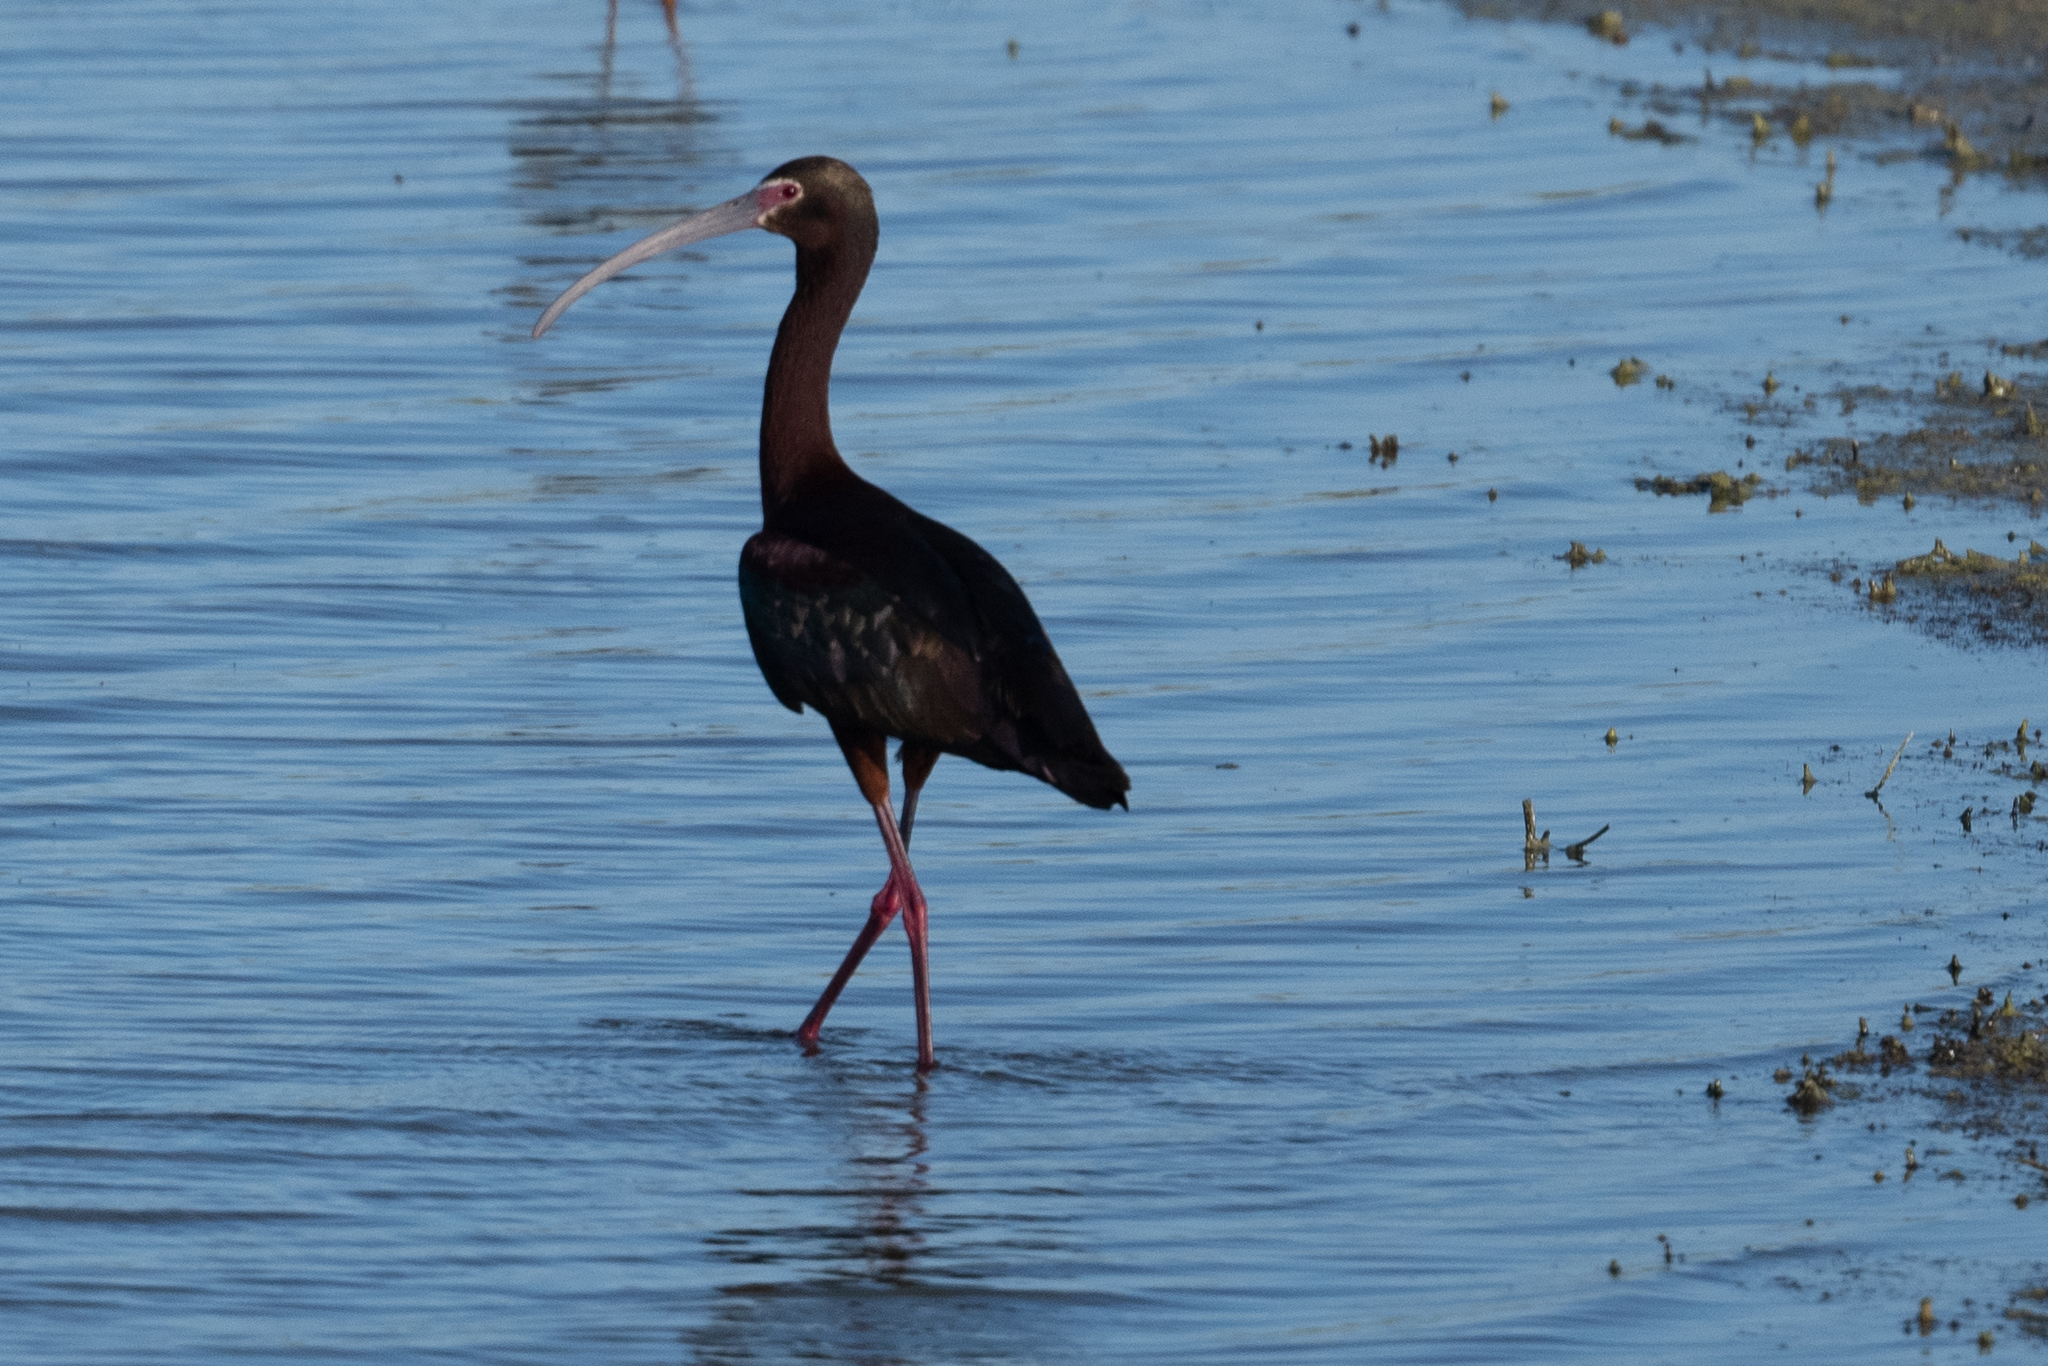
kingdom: Animalia
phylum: Chordata
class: Aves
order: Pelecaniformes
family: Threskiornithidae
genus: Plegadis
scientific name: Plegadis chihi
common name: White-faced ibis
